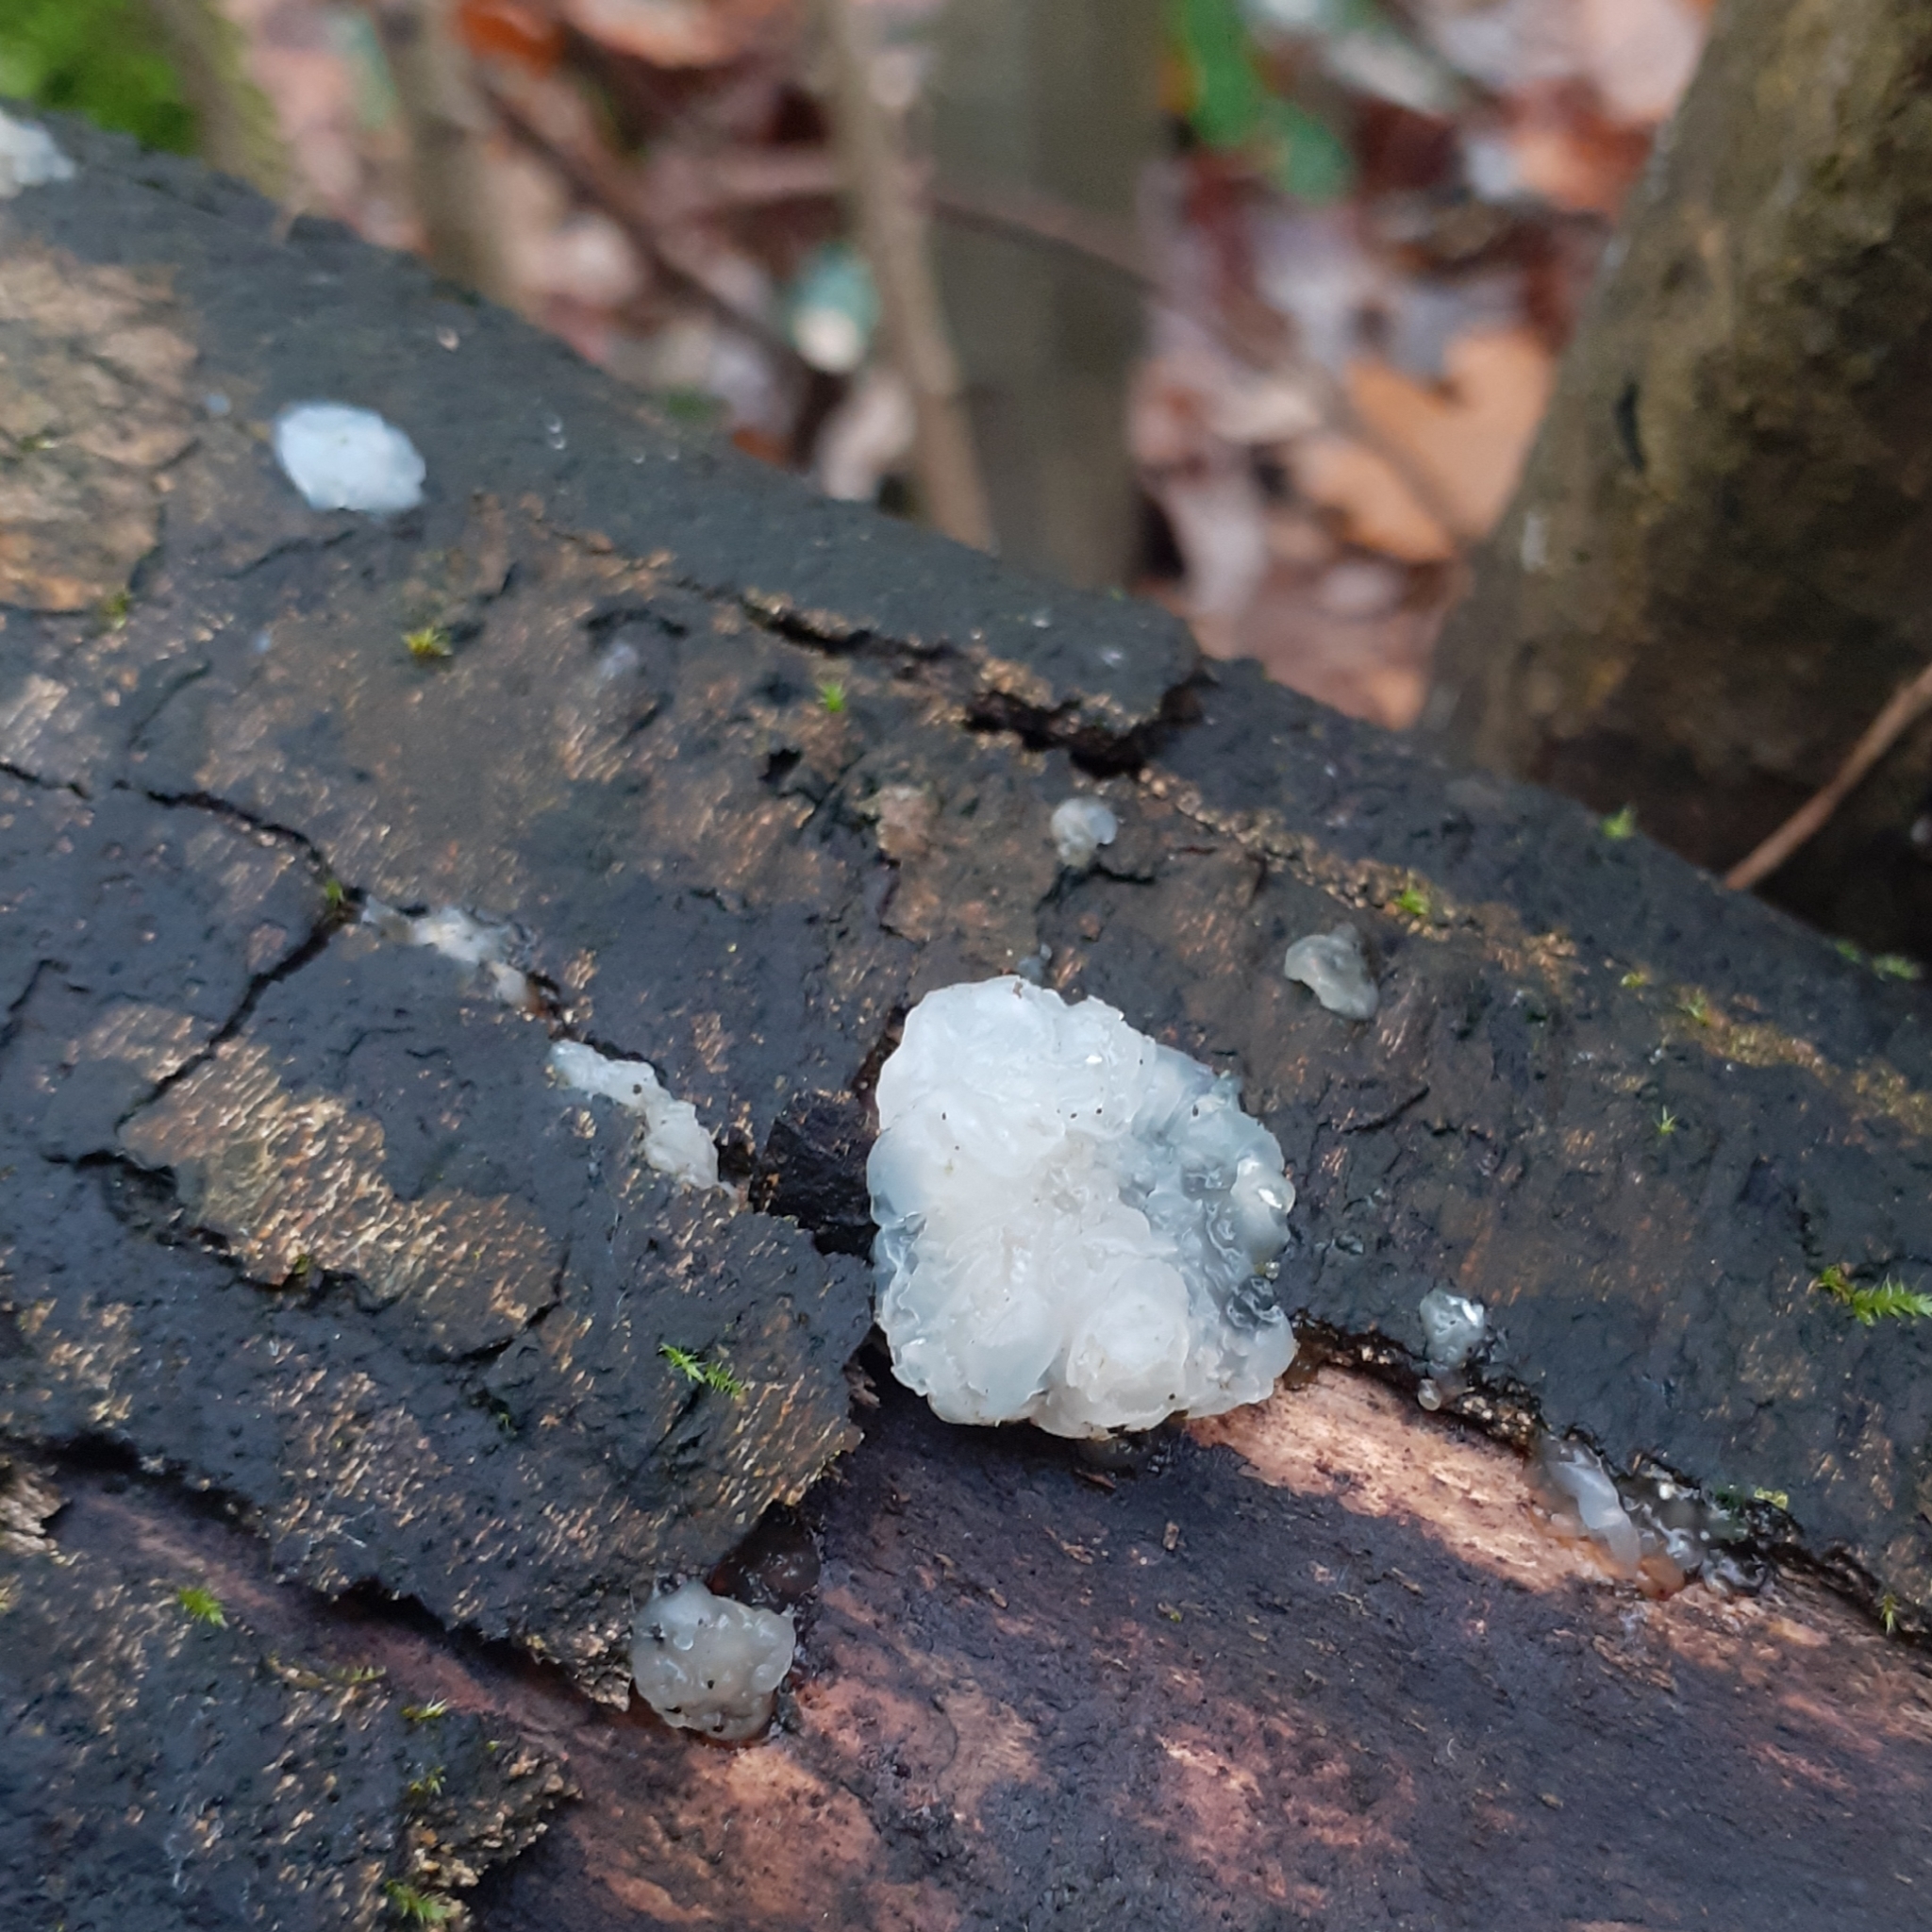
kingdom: Fungi
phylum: Basidiomycota
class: Agaricomycetes
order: Auriculariales
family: Hyaloriaceae
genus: Myxarium
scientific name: Myxarium nucleatum
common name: Crystal brain fungus
